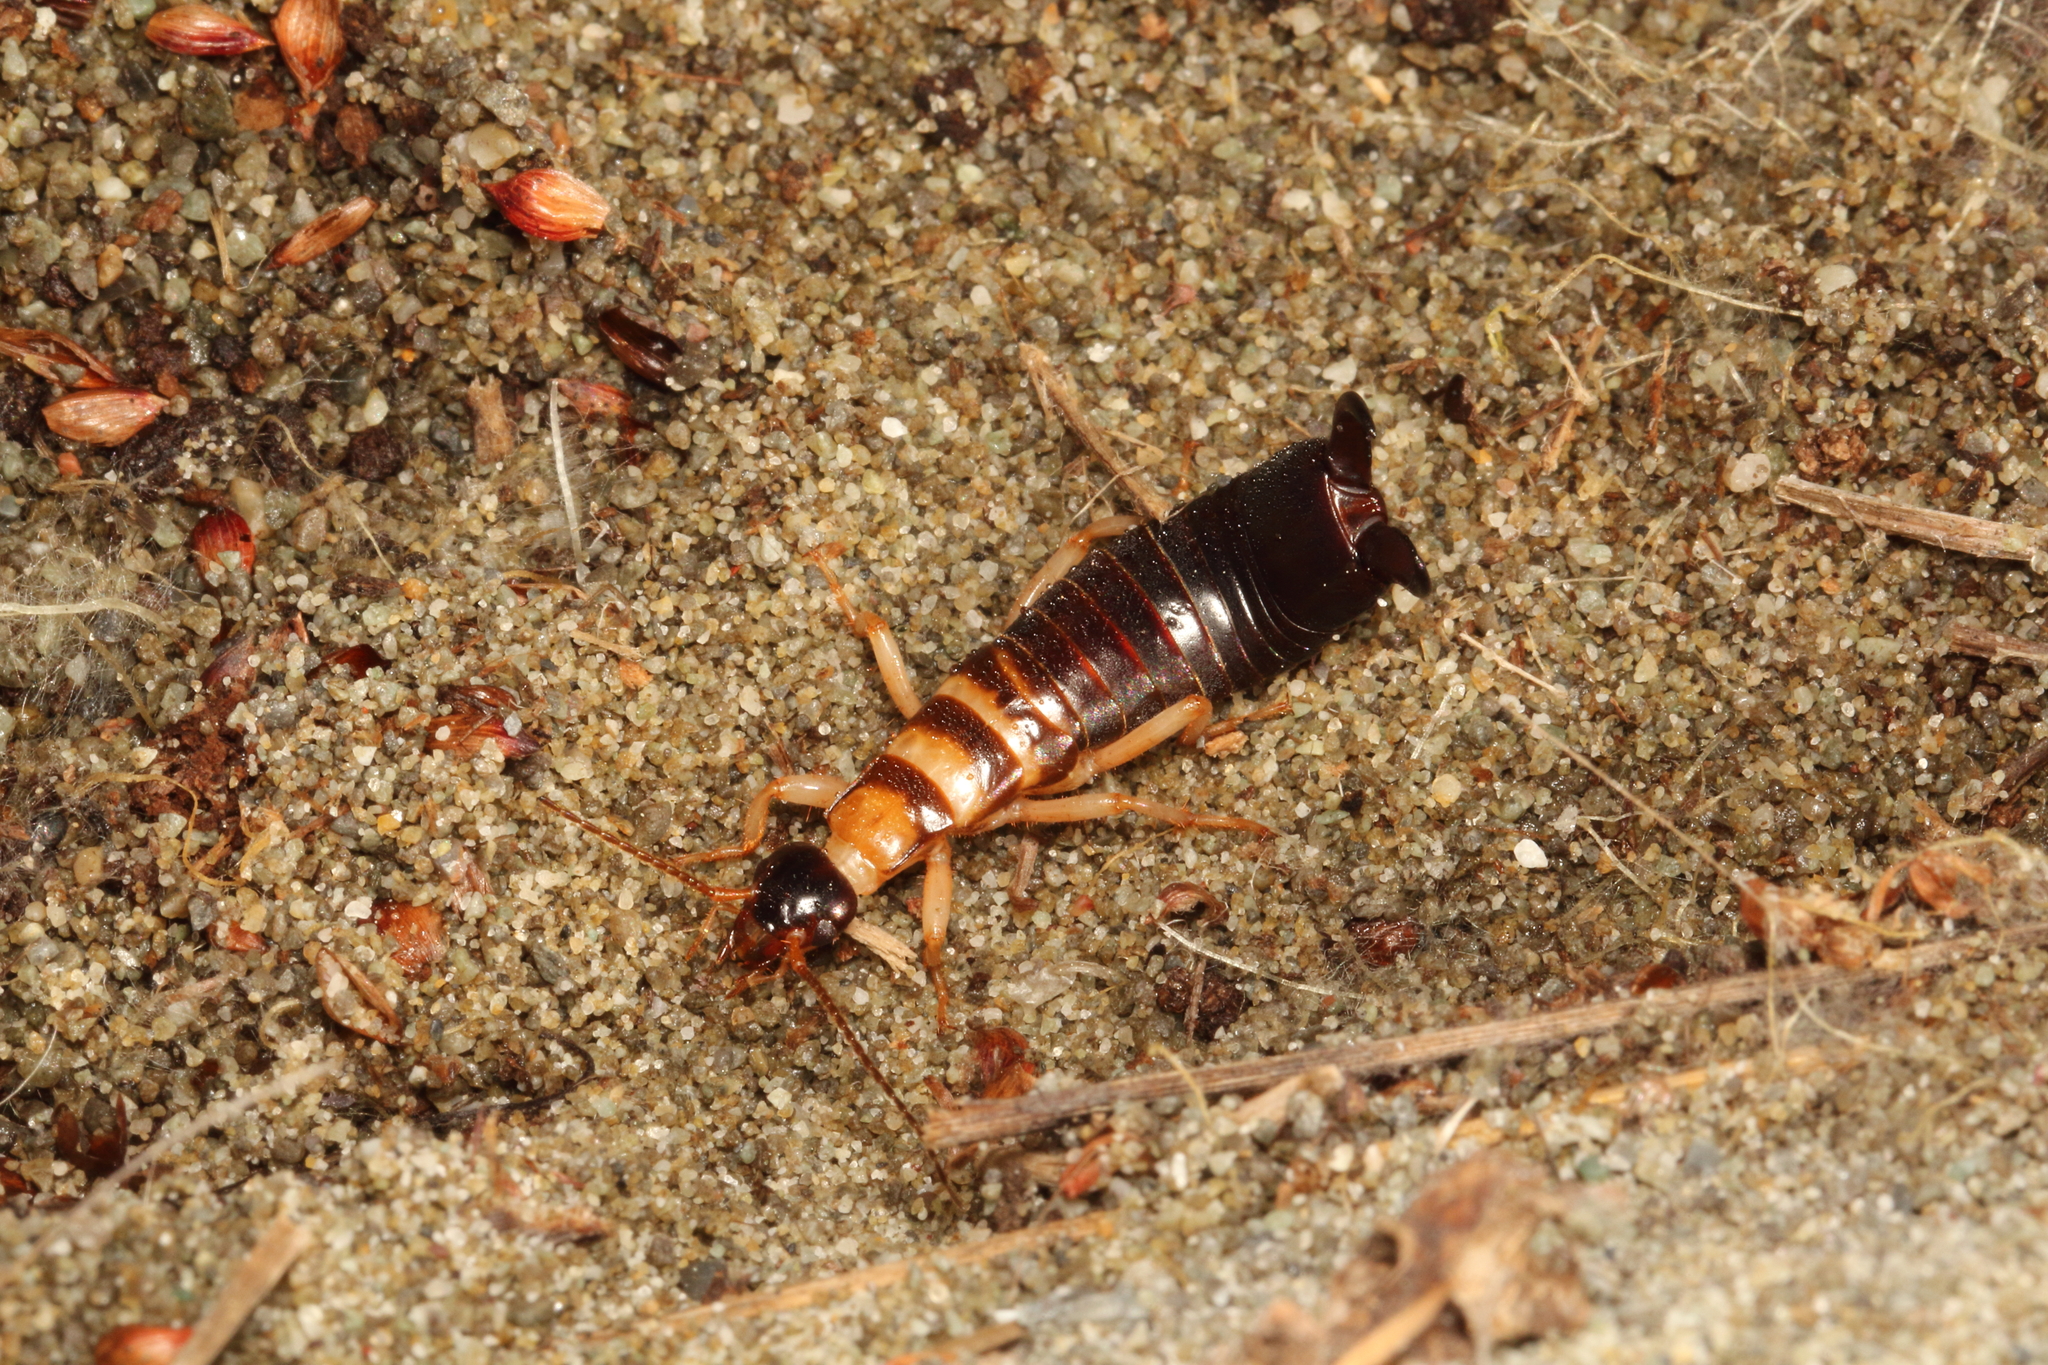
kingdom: Animalia
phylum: Arthropoda
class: Insecta
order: Dermaptera
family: Anisolabididae
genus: Anisolabis
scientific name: Anisolabis littorea
